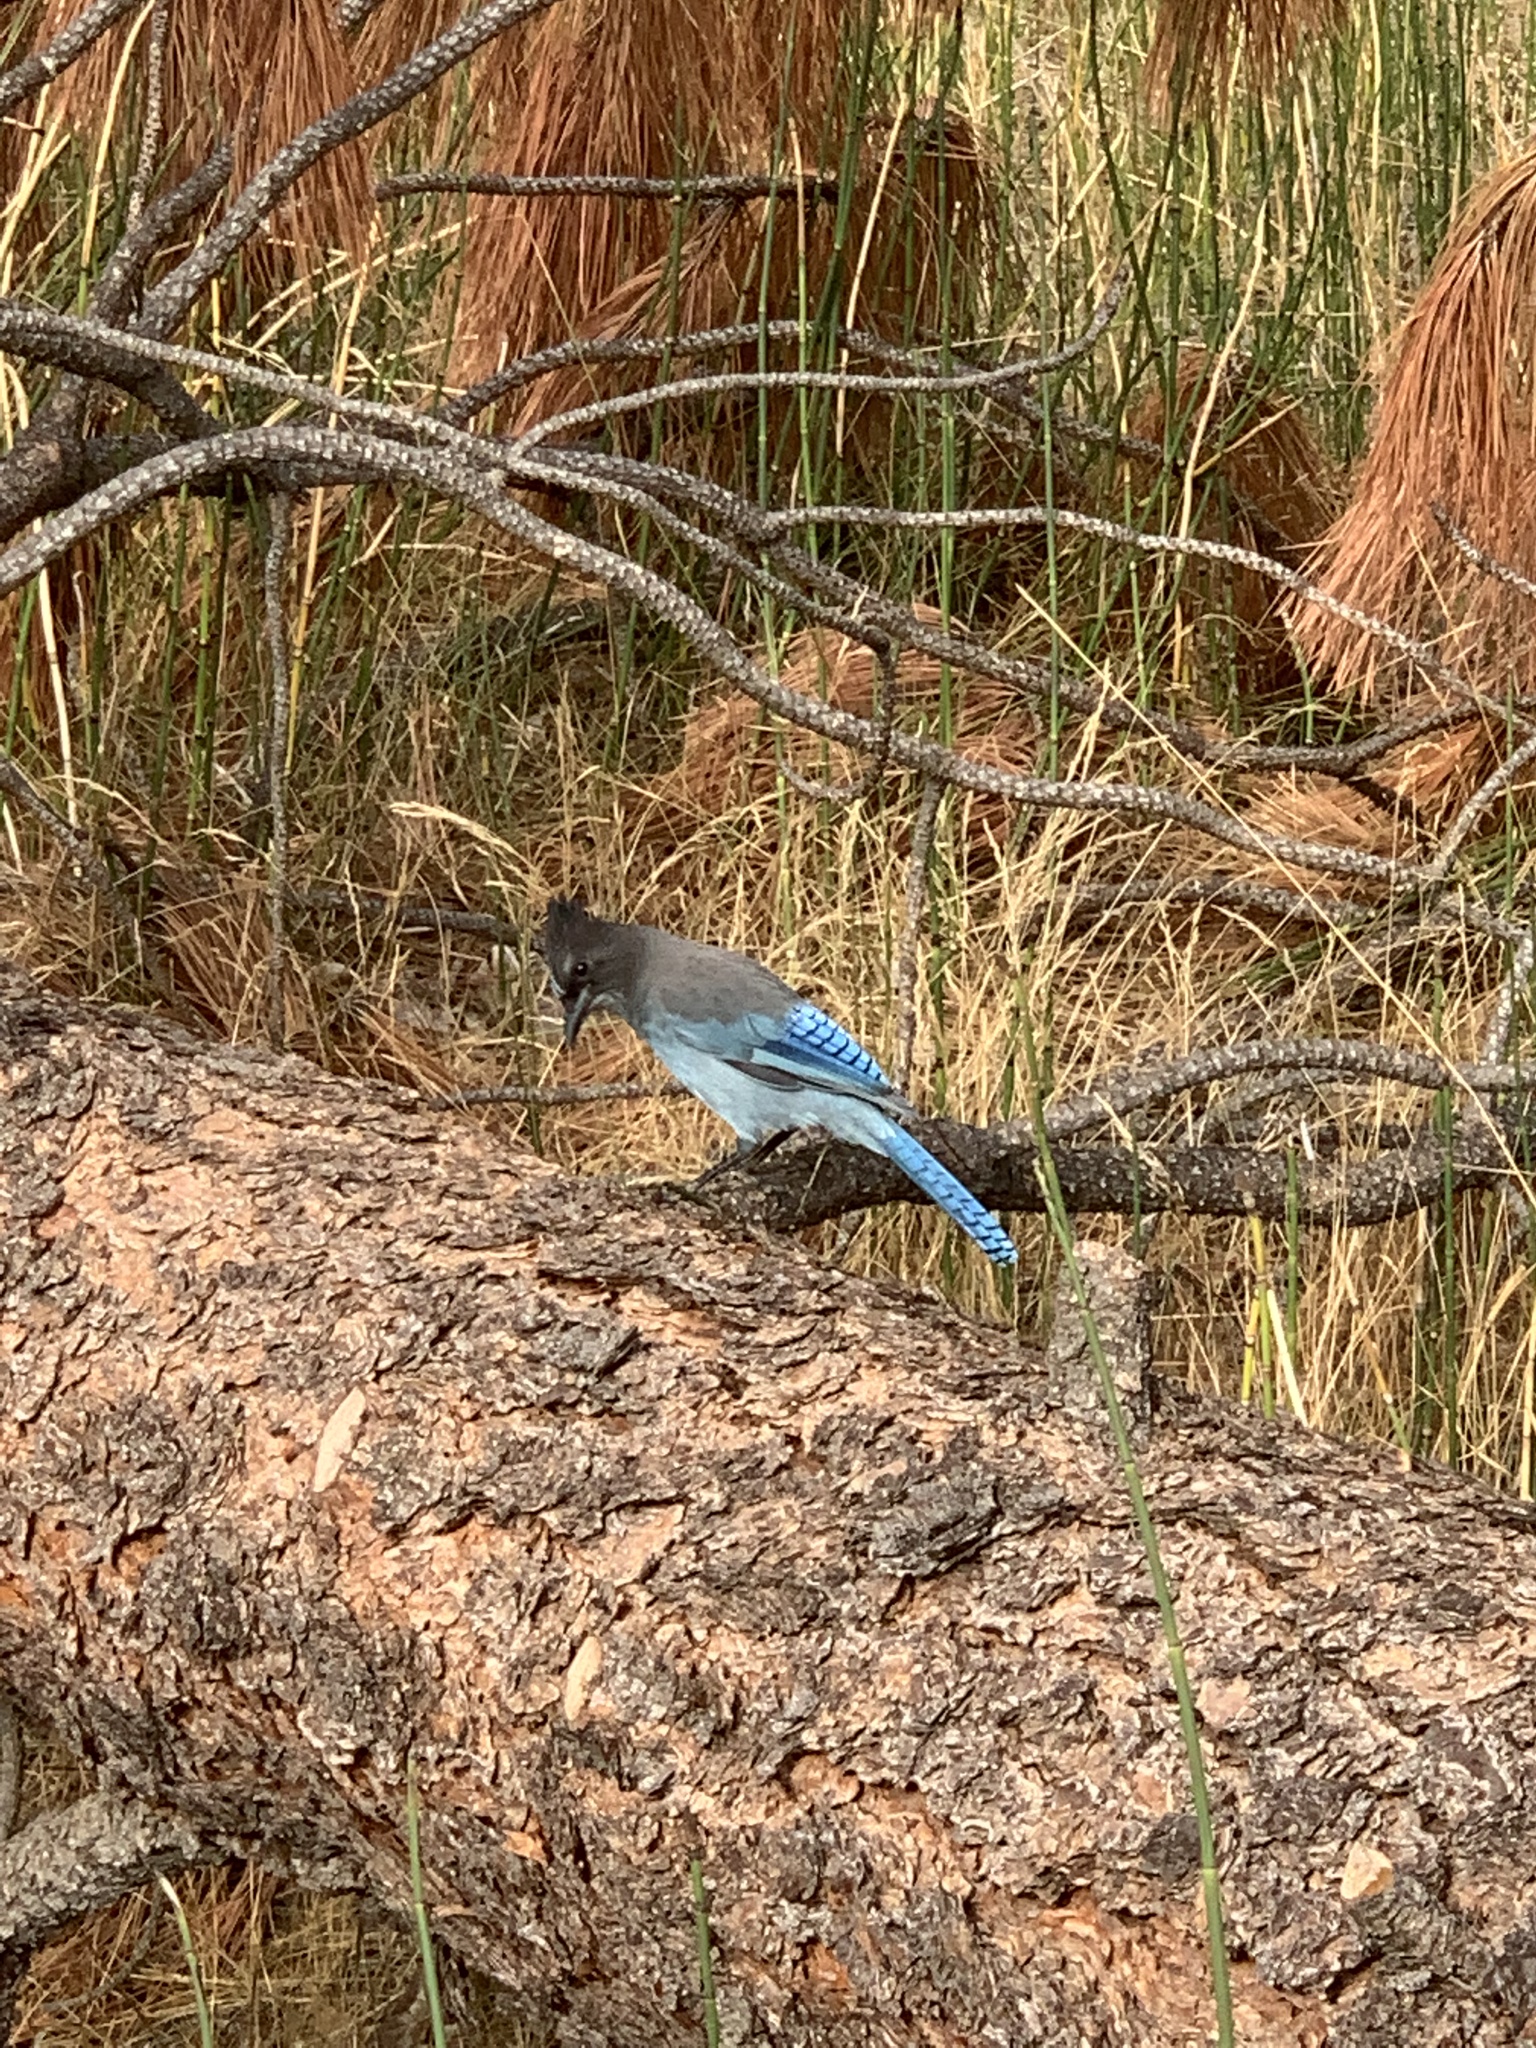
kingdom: Animalia
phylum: Chordata
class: Aves
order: Passeriformes
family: Corvidae
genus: Cyanocitta
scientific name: Cyanocitta stelleri
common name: Steller's jay
